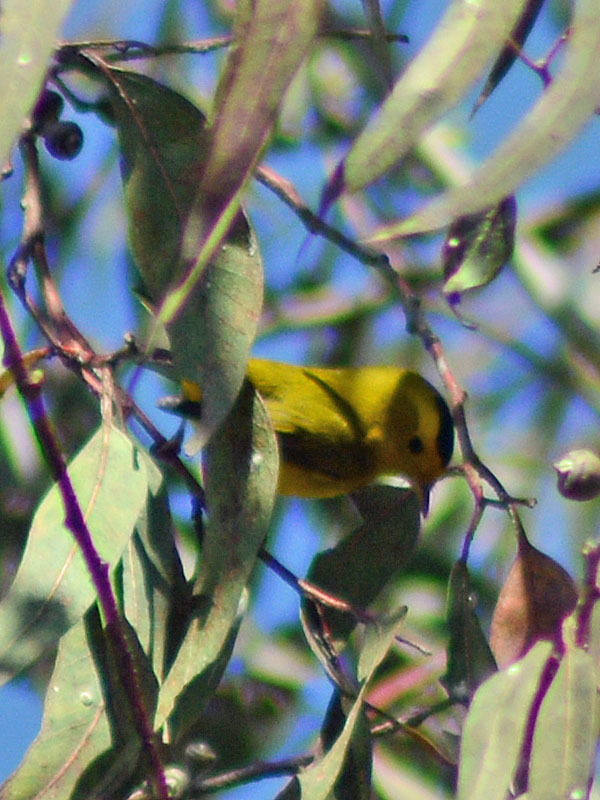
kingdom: Animalia
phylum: Chordata
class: Aves
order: Passeriformes
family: Parulidae
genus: Cardellina
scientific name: Cardellina pusilla
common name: Wilson's warbler
